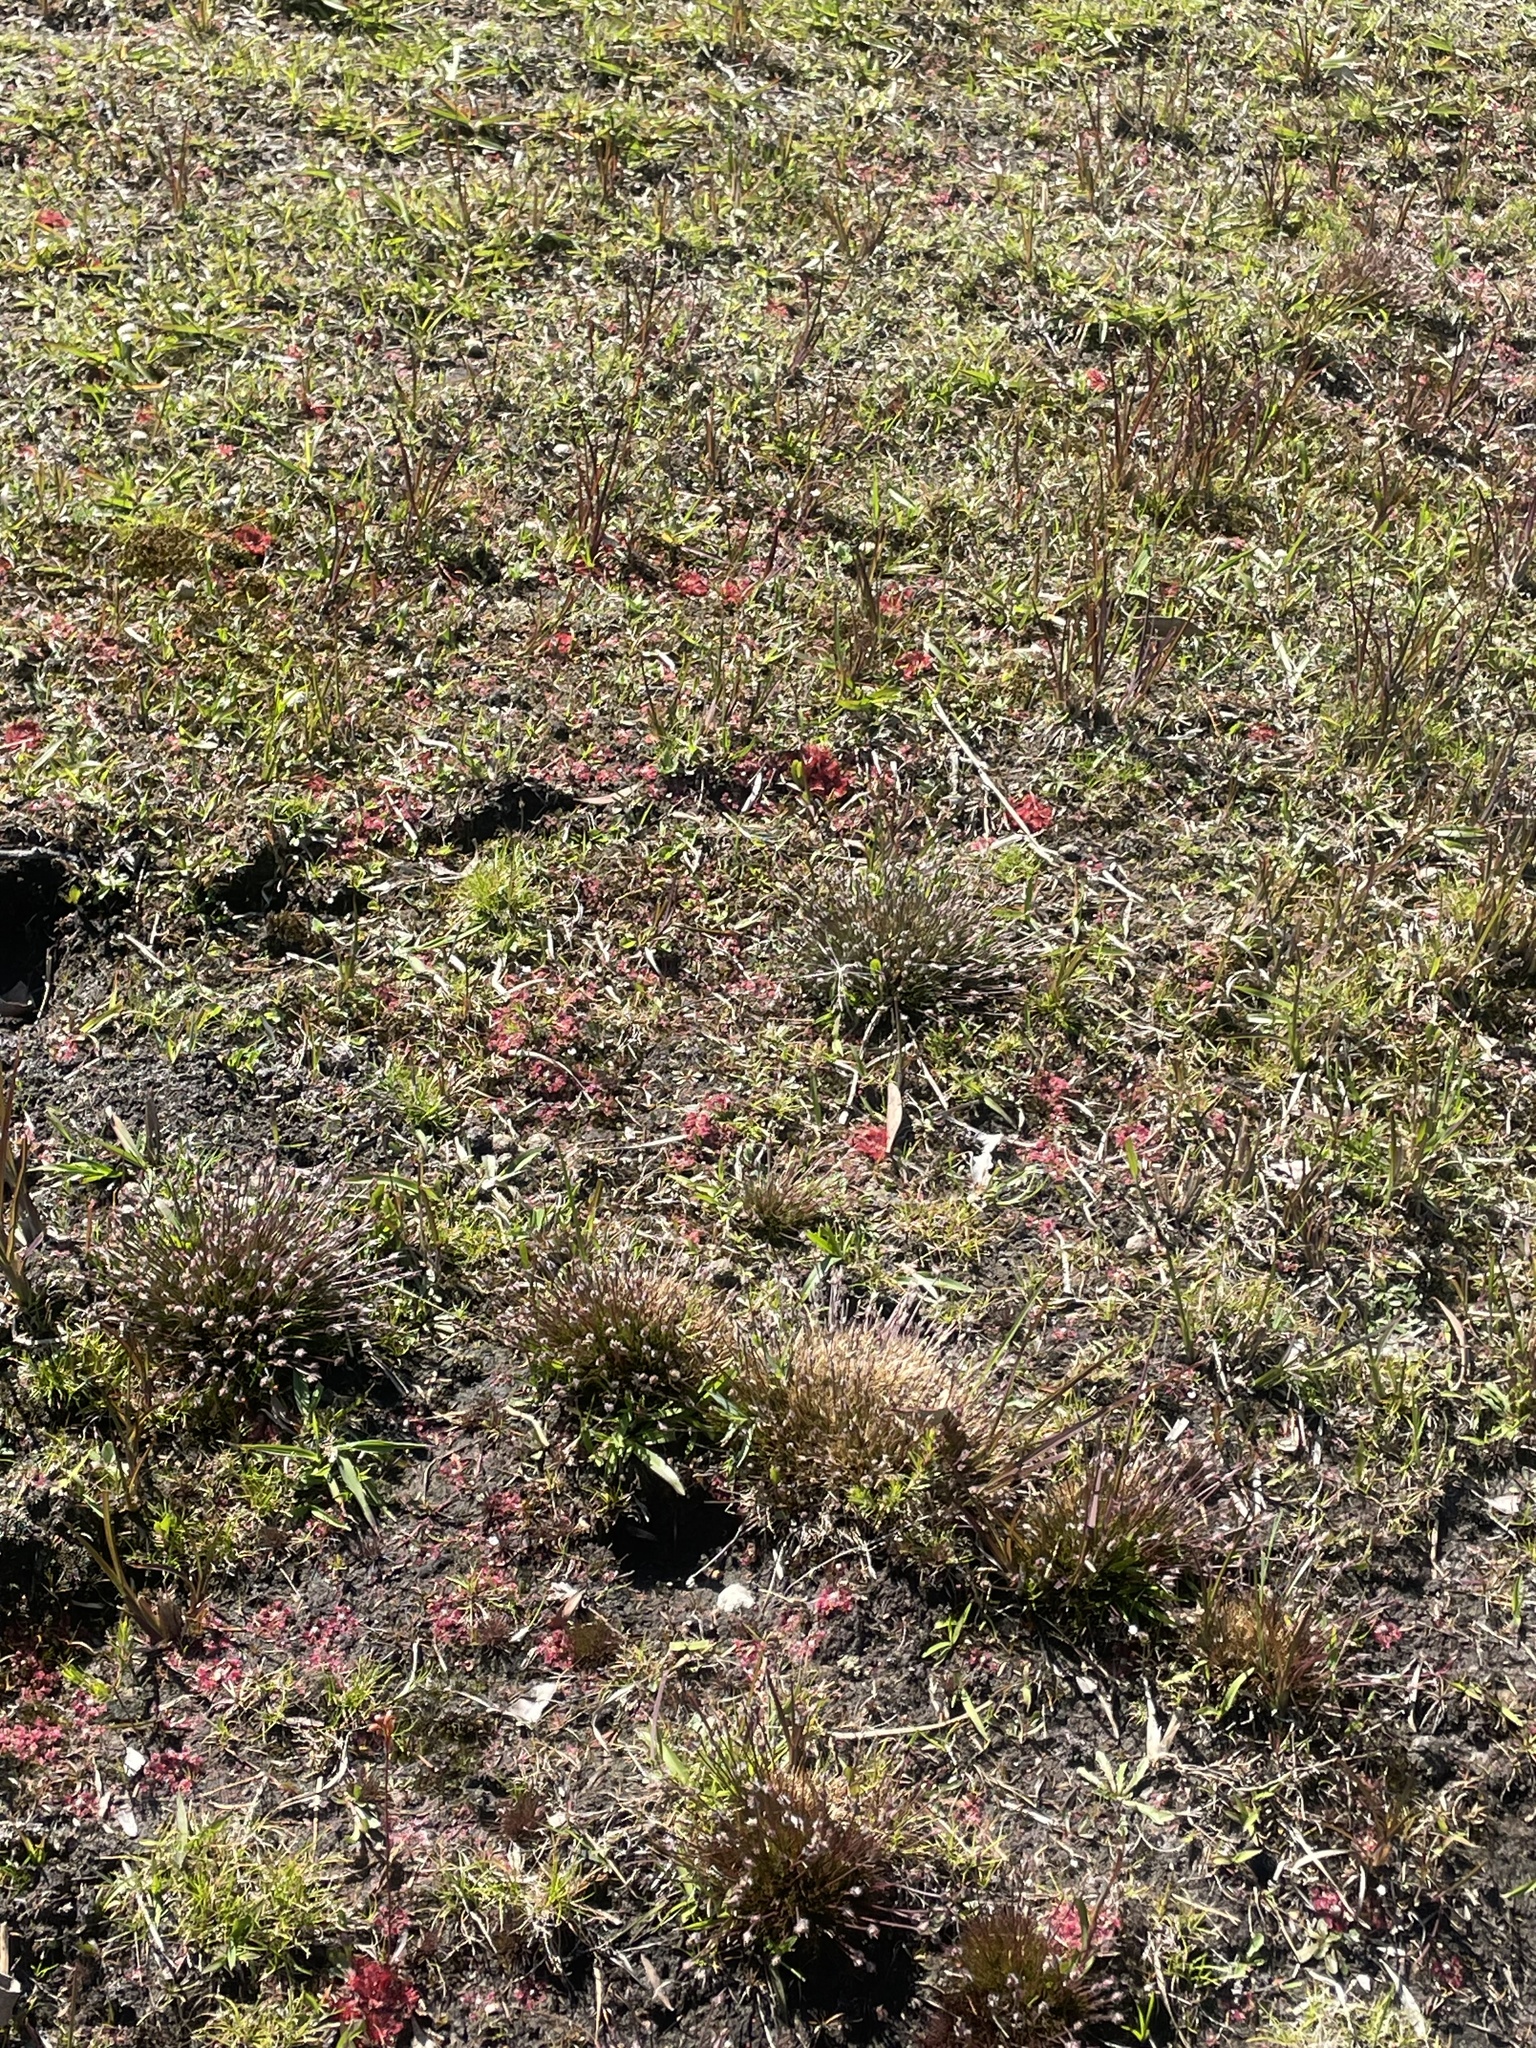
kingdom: Plantae
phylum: Tracheophyta
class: Magnoliopsida
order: Caryophyllales
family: Droseraceae
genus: Drosera
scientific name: Drosera pygmaea
